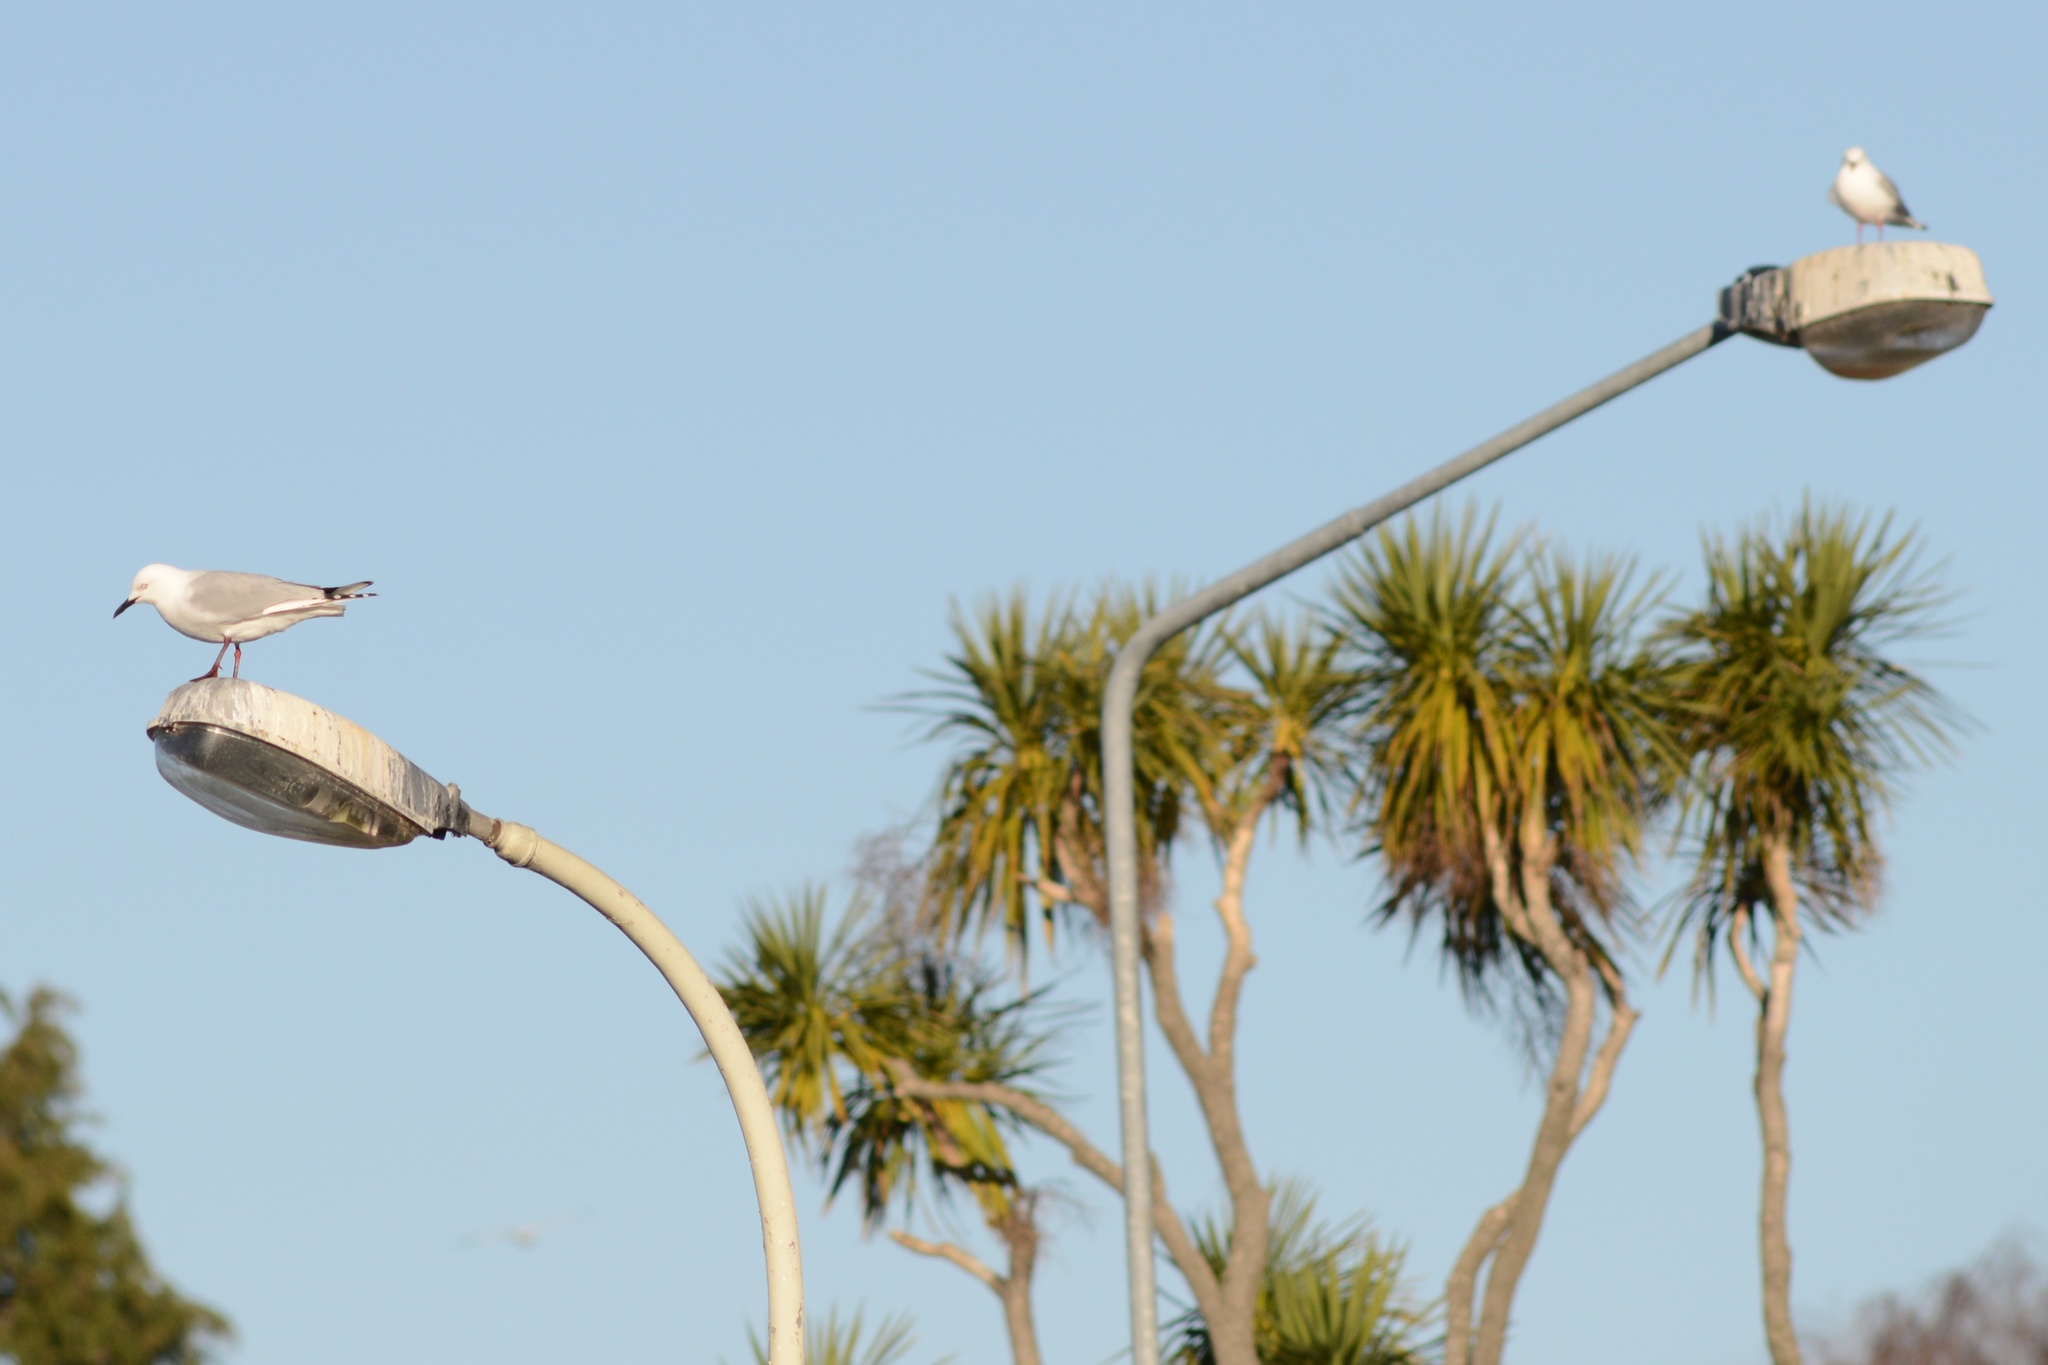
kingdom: Animalia
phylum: Chordata
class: Aves
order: Charadriiformes
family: Laridae
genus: Chroicocephalus
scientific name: Chroicocephalus bulleri
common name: Black-billed gull
